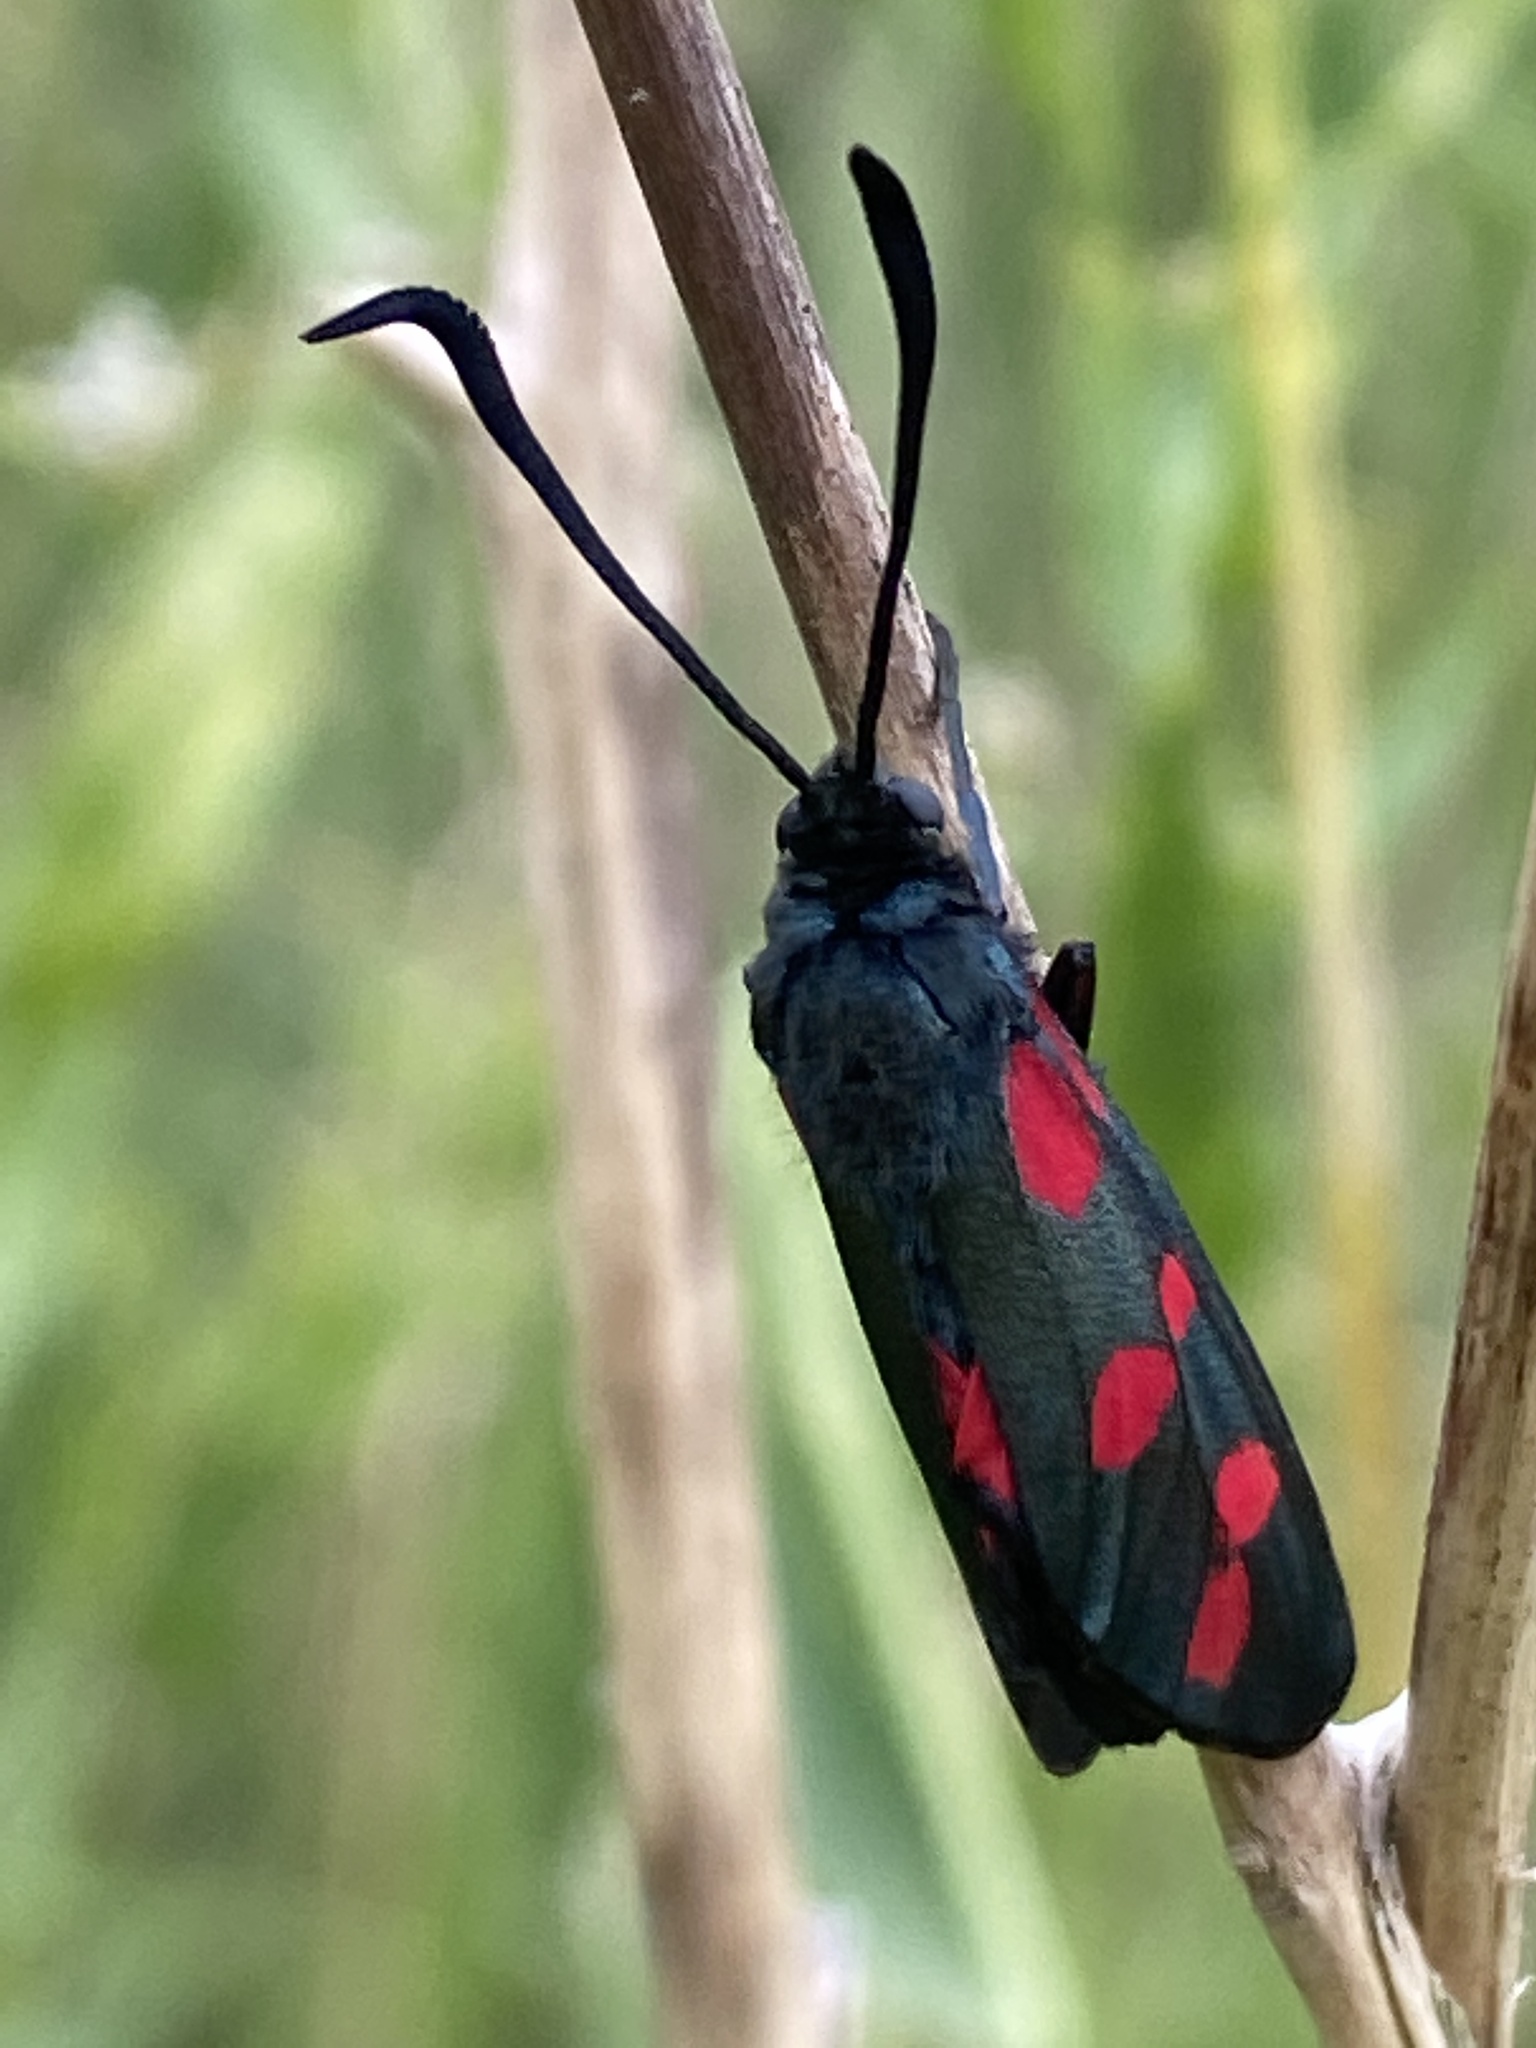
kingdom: Animalia
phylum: Arthropoda
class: Insecta
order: Lepidoptera
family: Zygaenidae
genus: Zygaena
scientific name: Zygaena filipendulae
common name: Six-spot burnet
